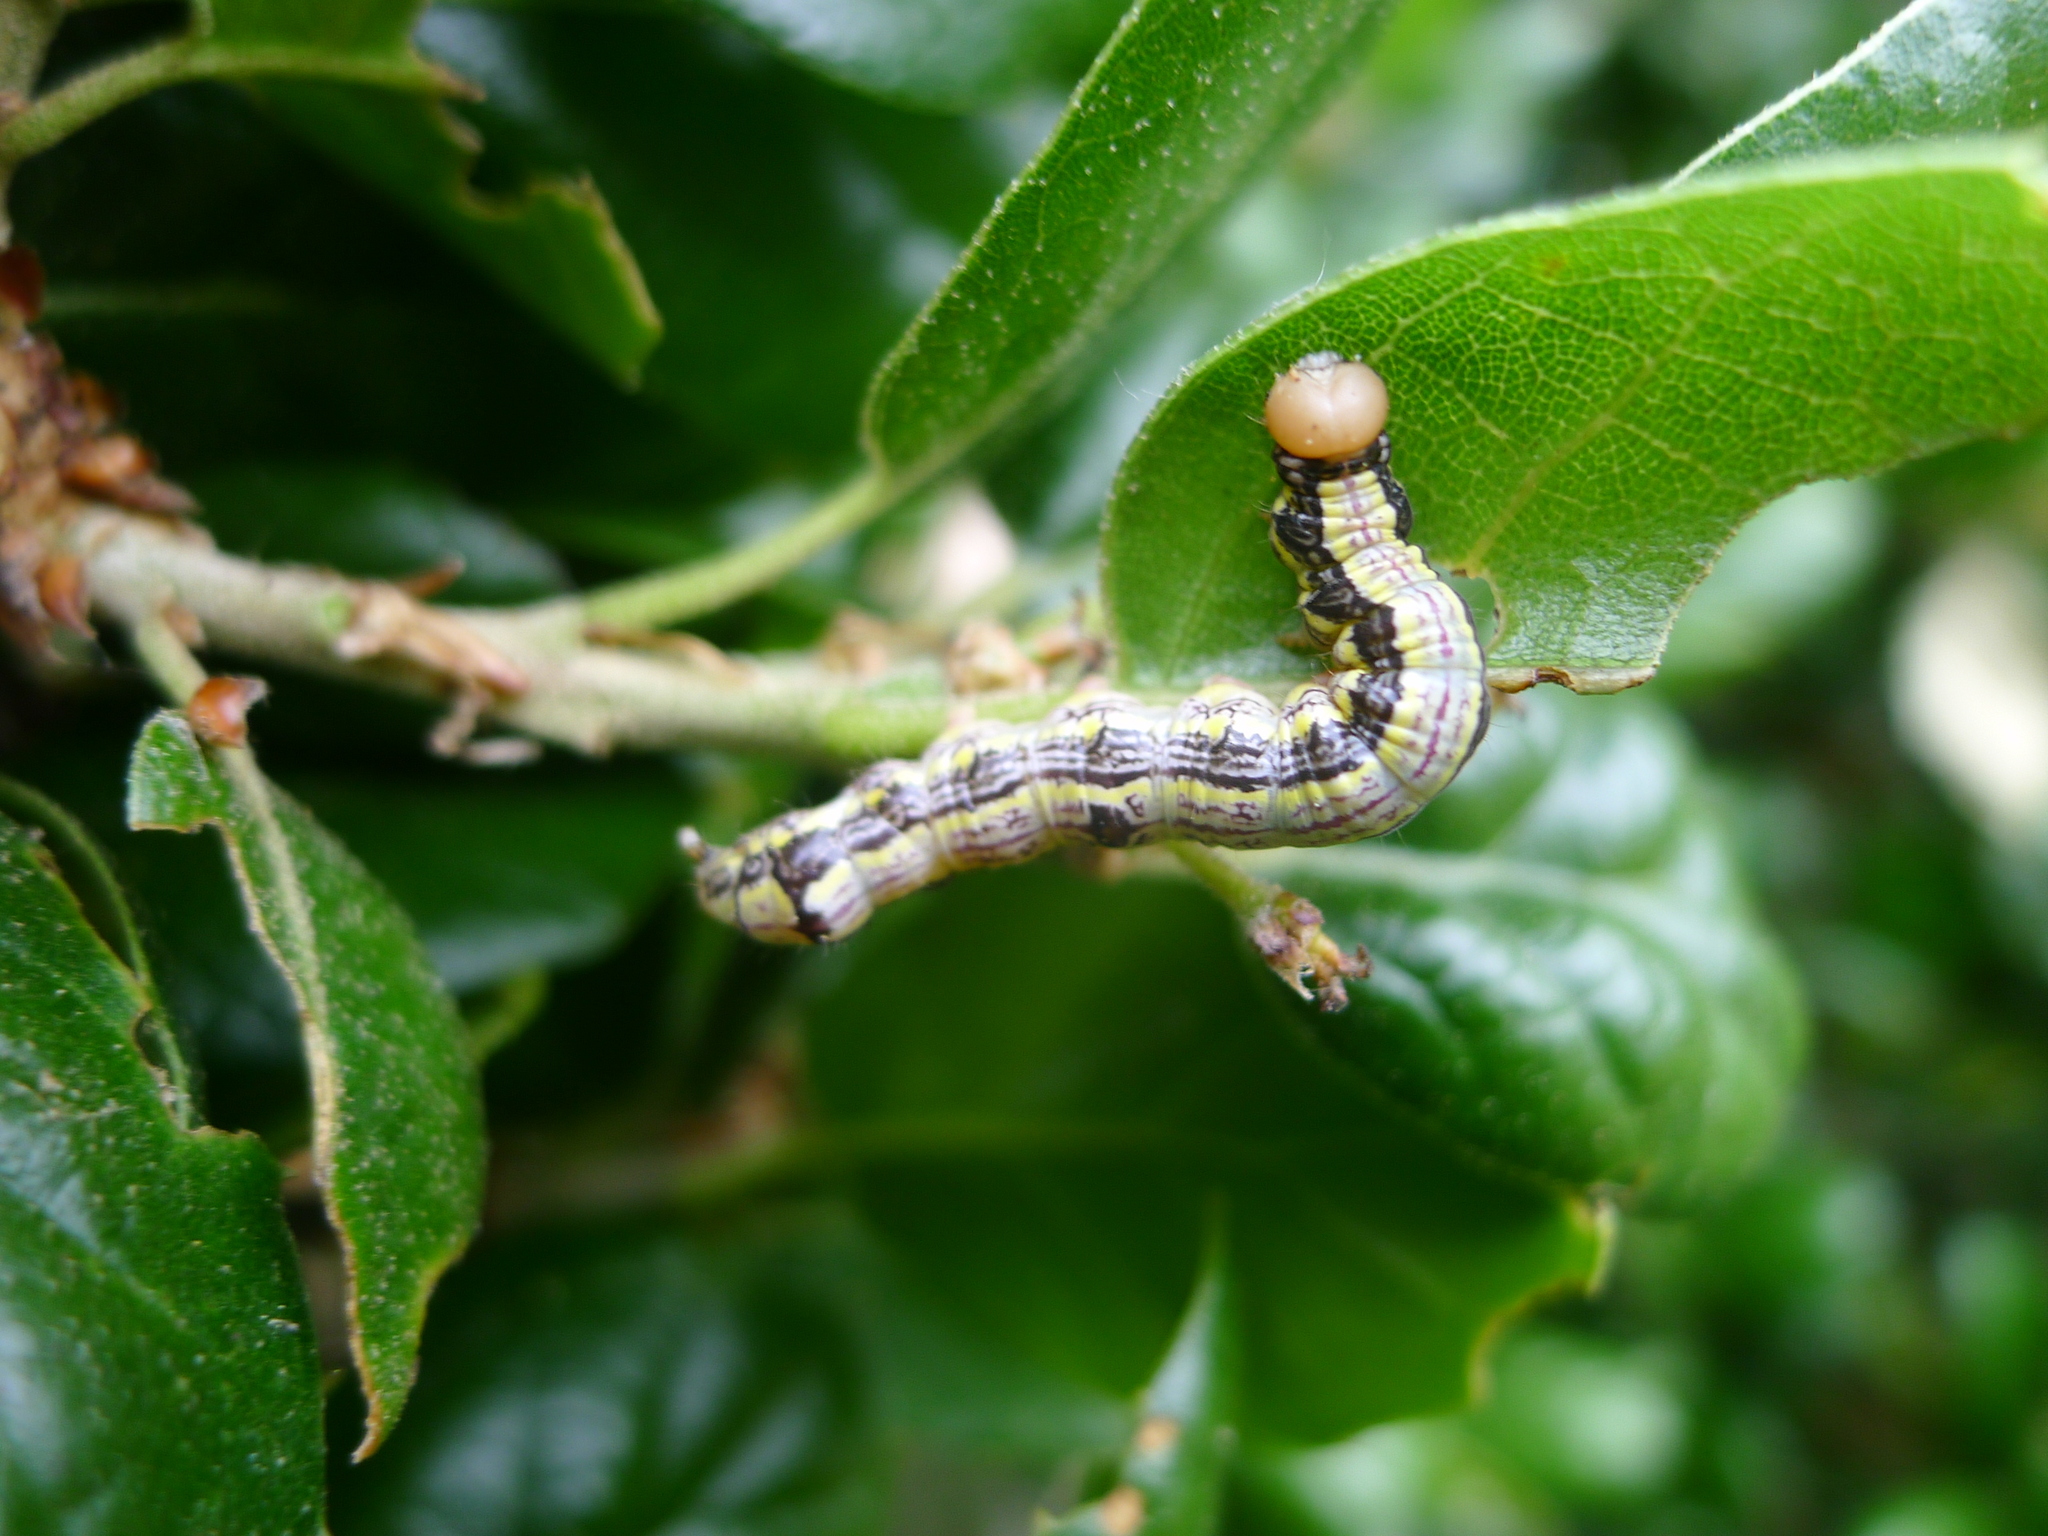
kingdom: Animalia
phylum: Arthropoda
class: Insecta
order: Lepidoptera
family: Notodontidae
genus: Phryganidia
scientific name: Phryganidia californica
